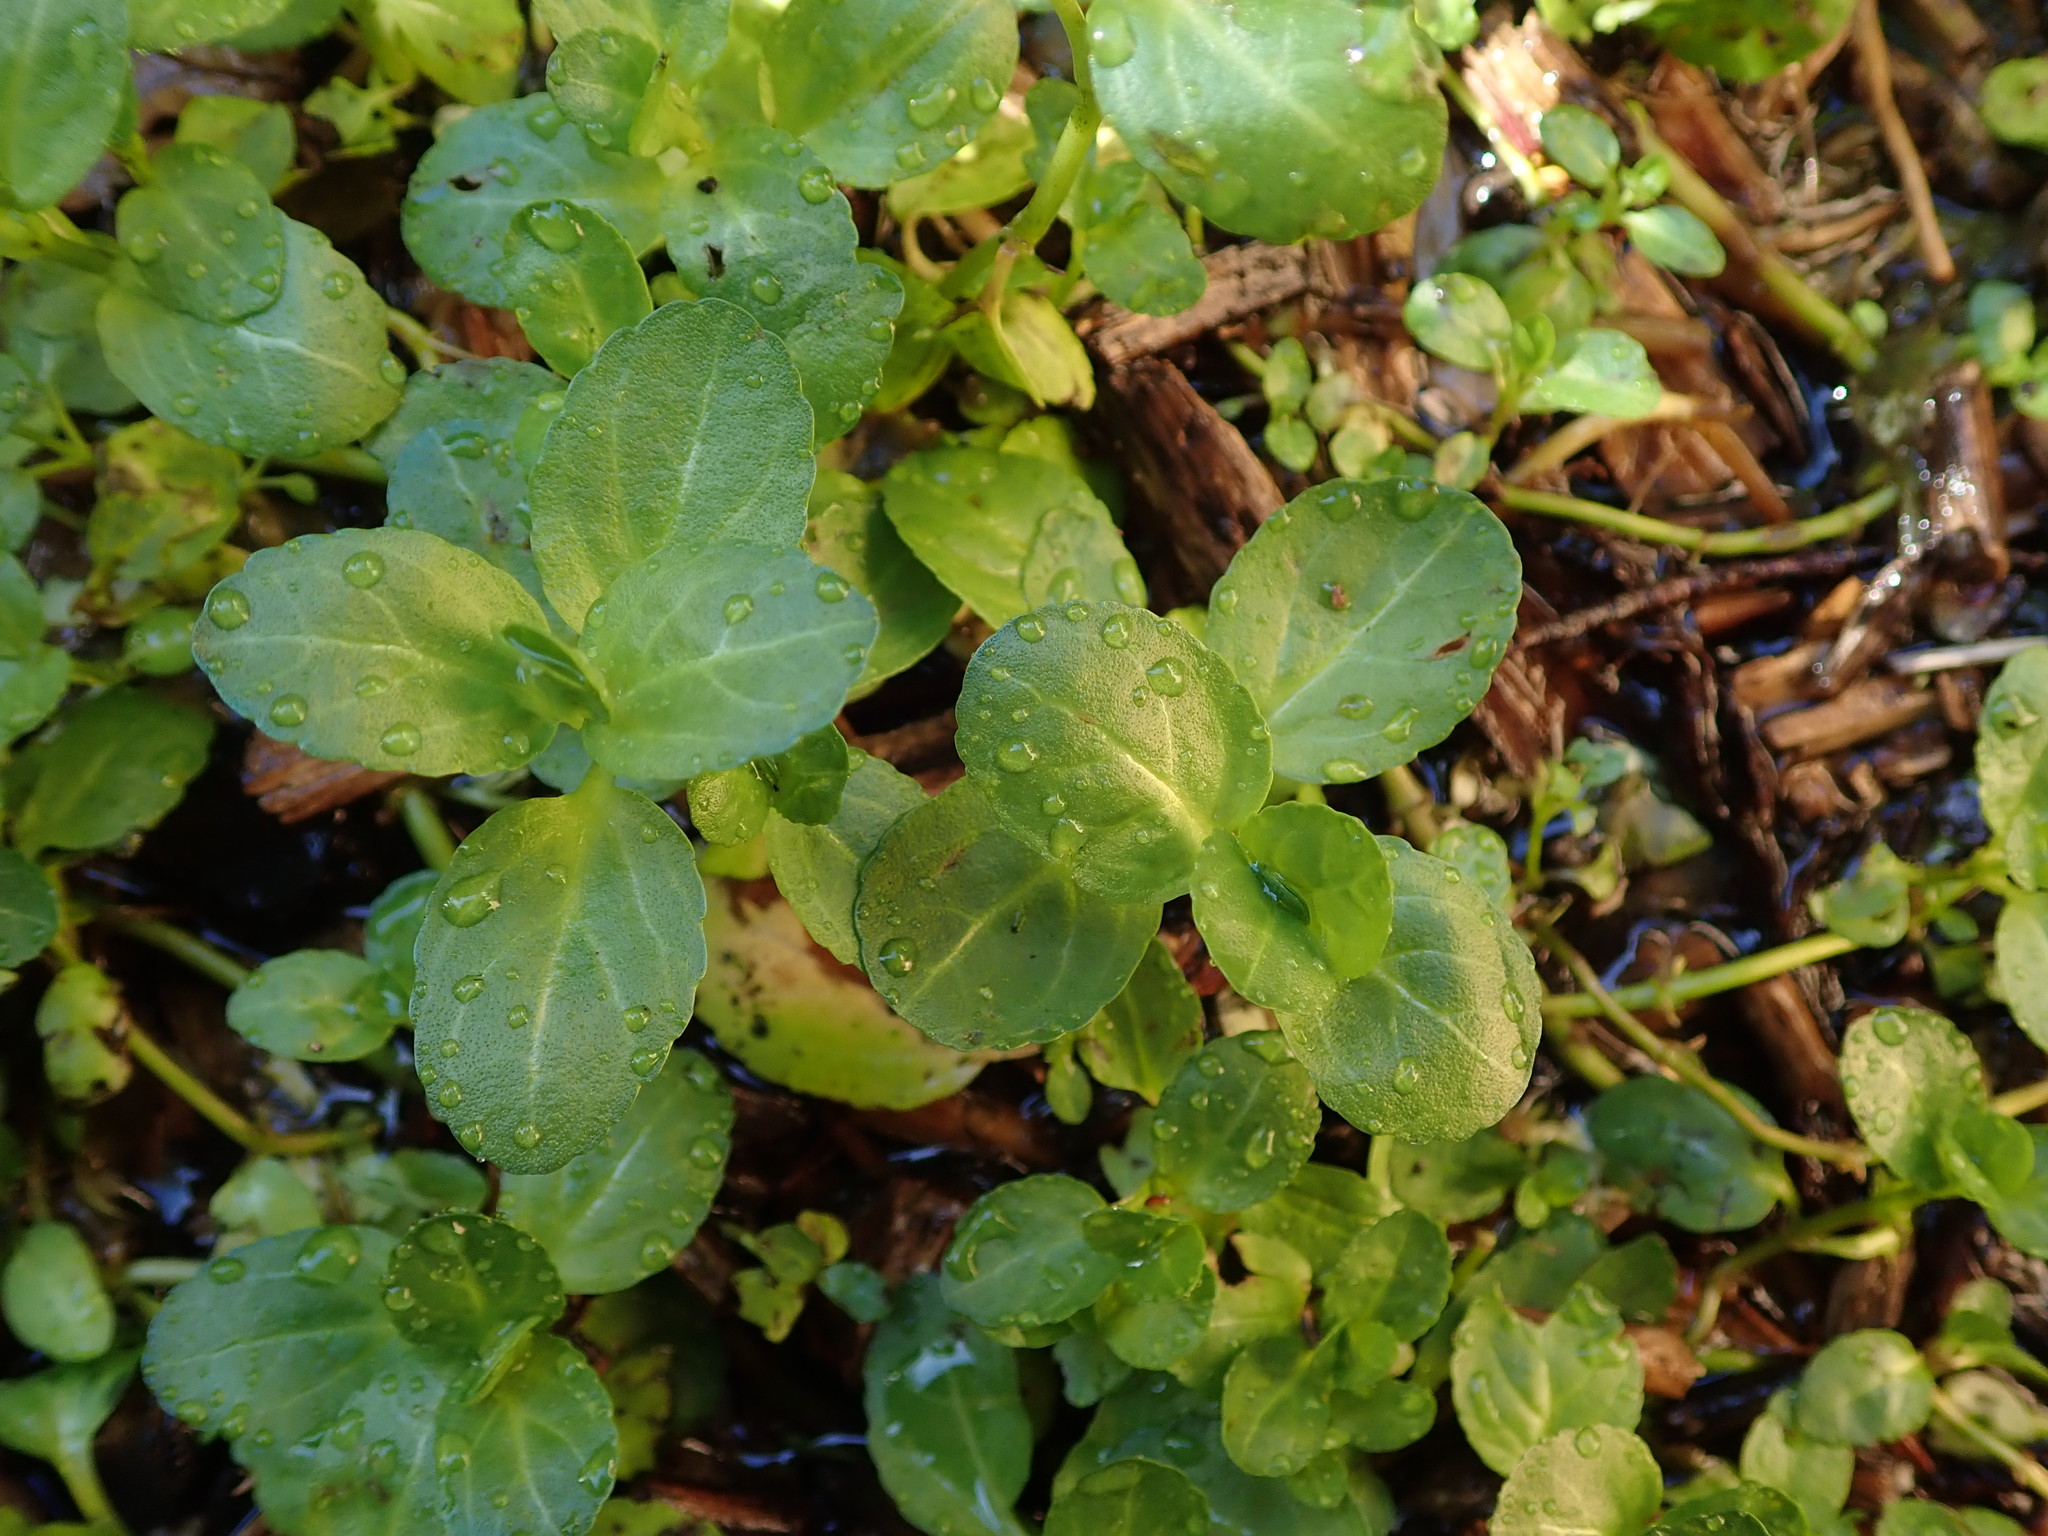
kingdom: Plantae
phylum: Tracheophyta
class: Magnoliopsida
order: Lamiales
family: Plantaginaceae
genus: Veronica
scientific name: Veronica beccabunga
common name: Brooklime
